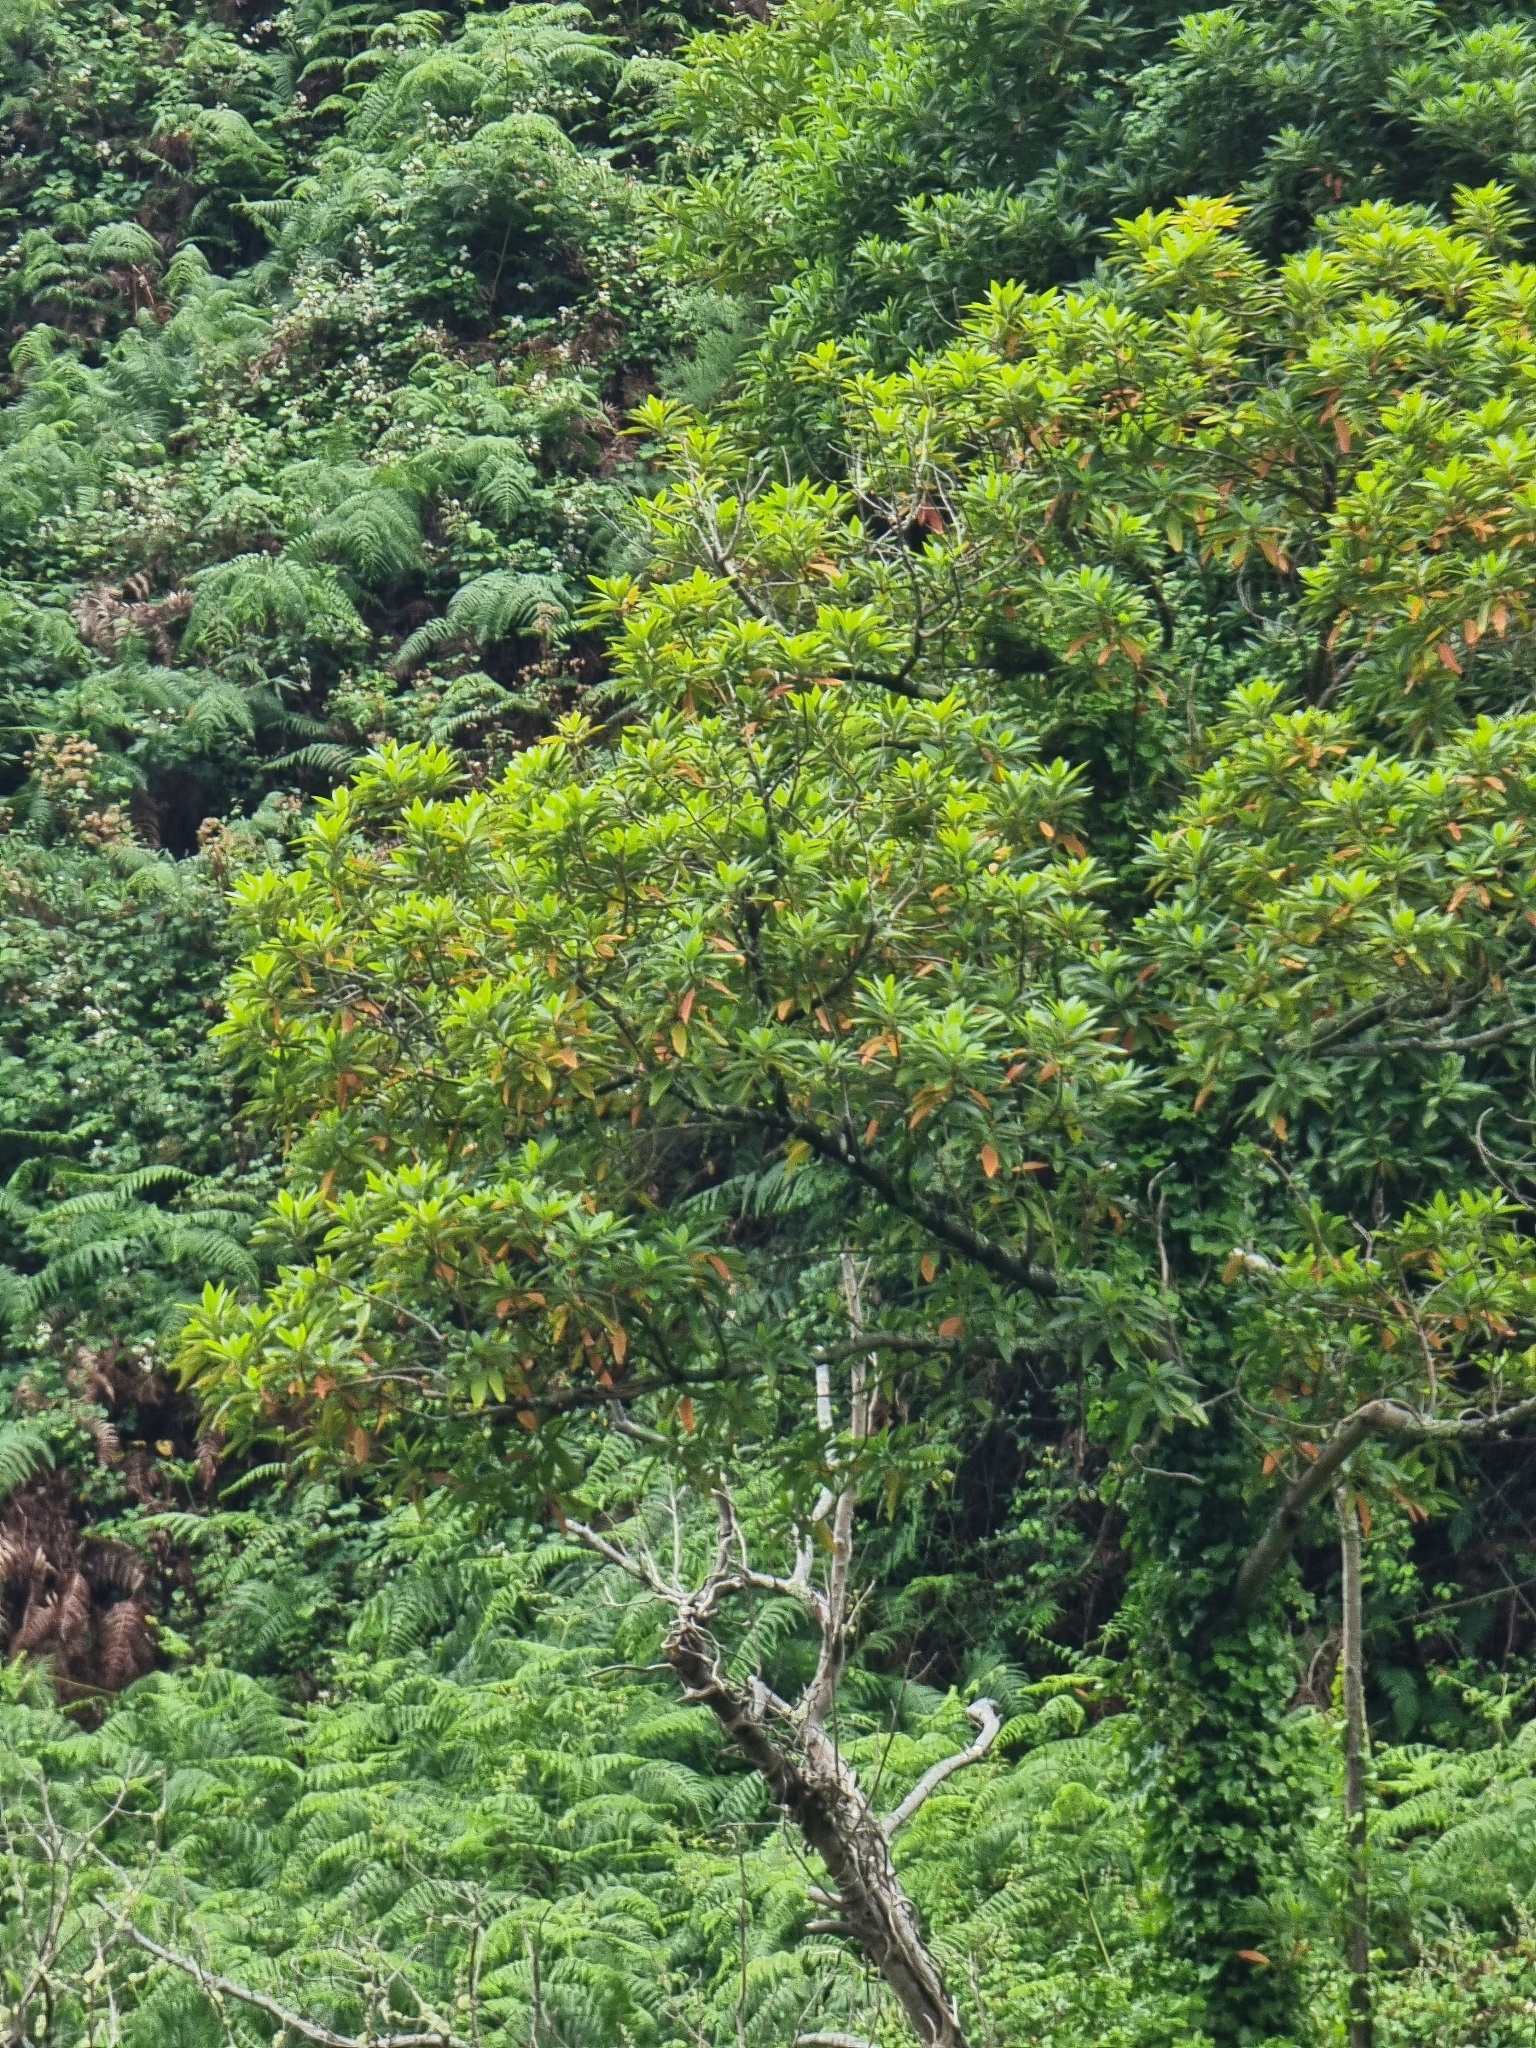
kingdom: Plantae
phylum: Tracheophyta
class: Magnoliopsida
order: Laurales
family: Lauraceae
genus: Persea
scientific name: Persea indica
